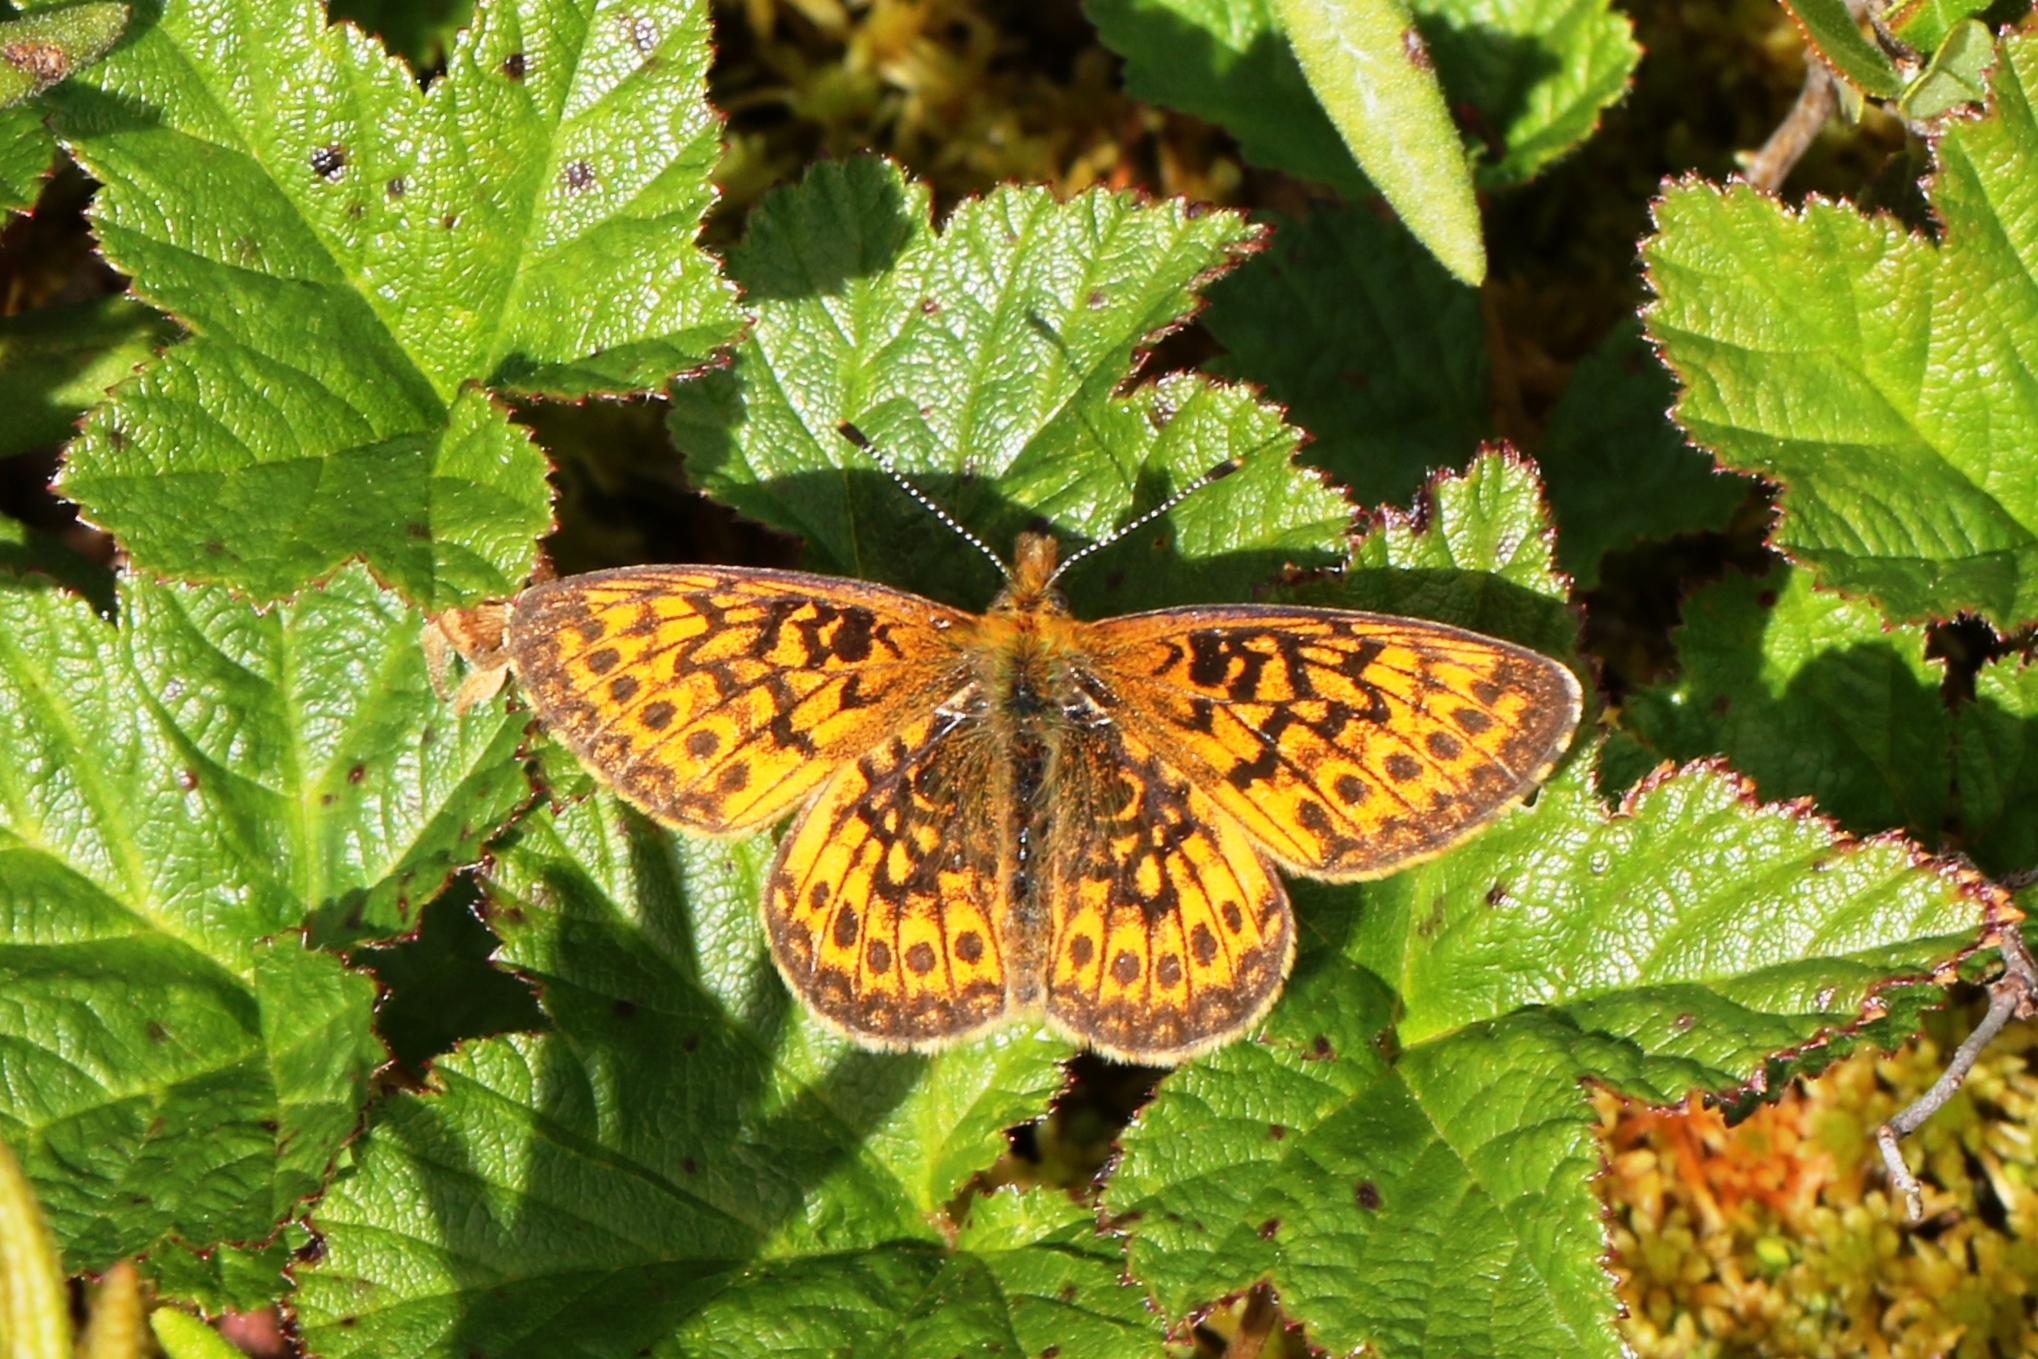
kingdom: Animalia
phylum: Arthropoda
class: Insecta
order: Lepidoptera
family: Nymphalidae
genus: Boloria
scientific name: Boloria eunomia
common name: Bog fritillary
